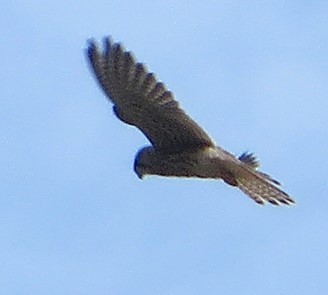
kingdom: Animalia
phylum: Chordata
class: Aves
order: Falconiformes
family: Falconidae
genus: Falco
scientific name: Falco tinnunculus
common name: Common kestrel
